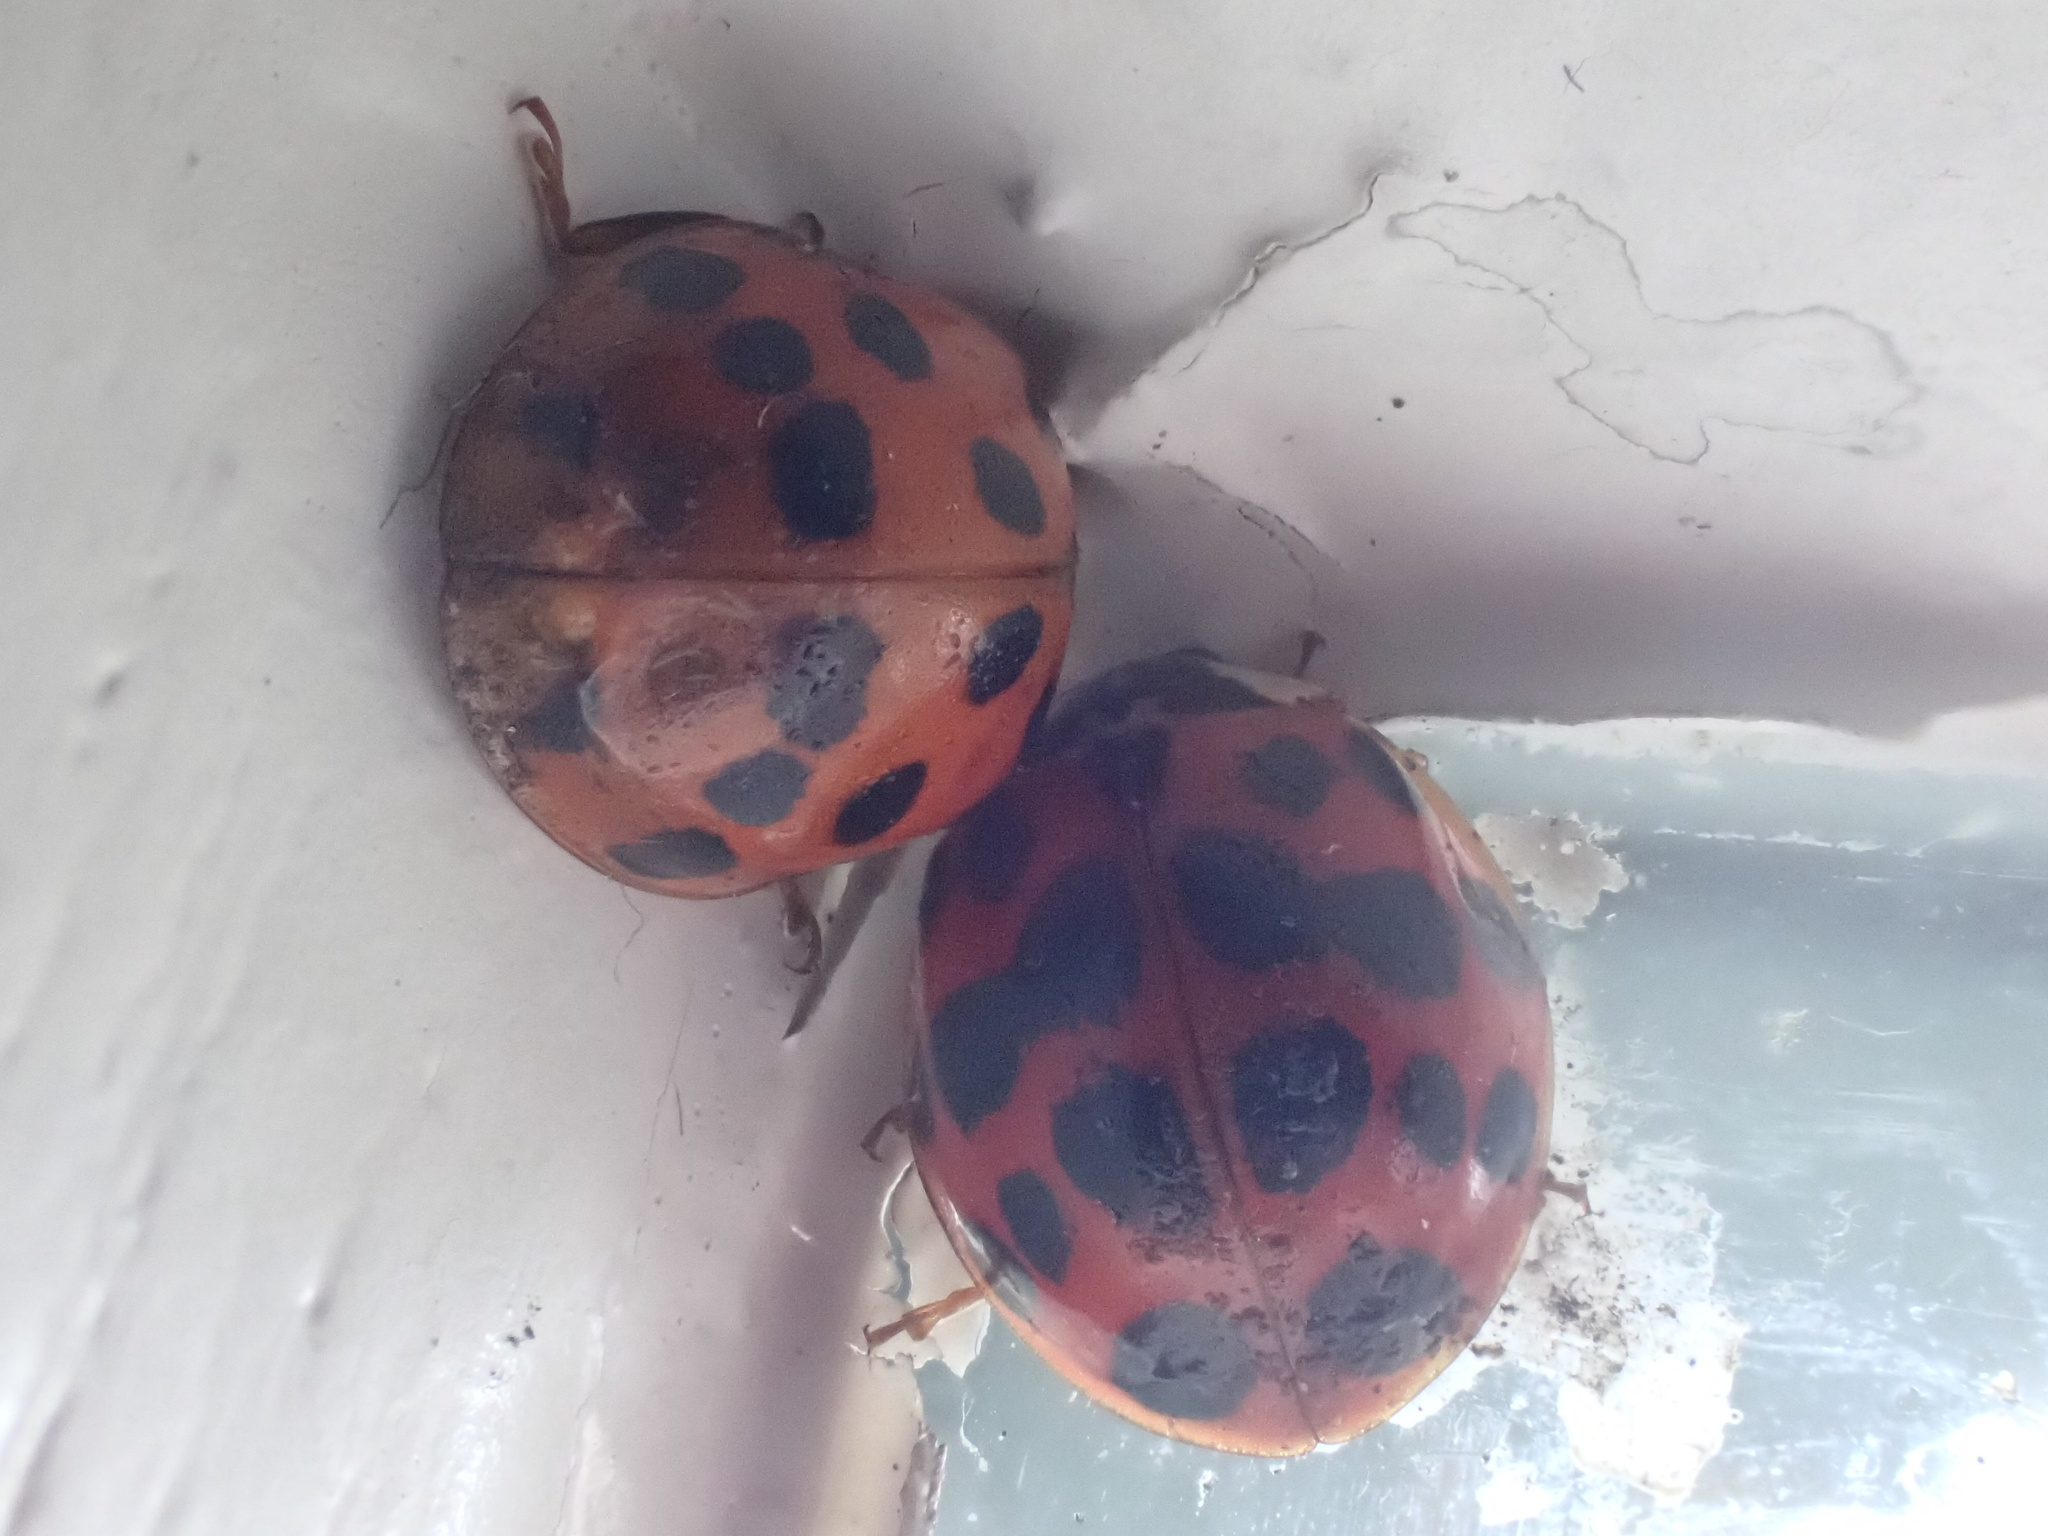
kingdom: Animalia
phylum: Arthropoda
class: Insecta
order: Coleoptera
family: Coccinellidae
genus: Harmonia
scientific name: Harmonia axyridis
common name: Harlequin ladybird
